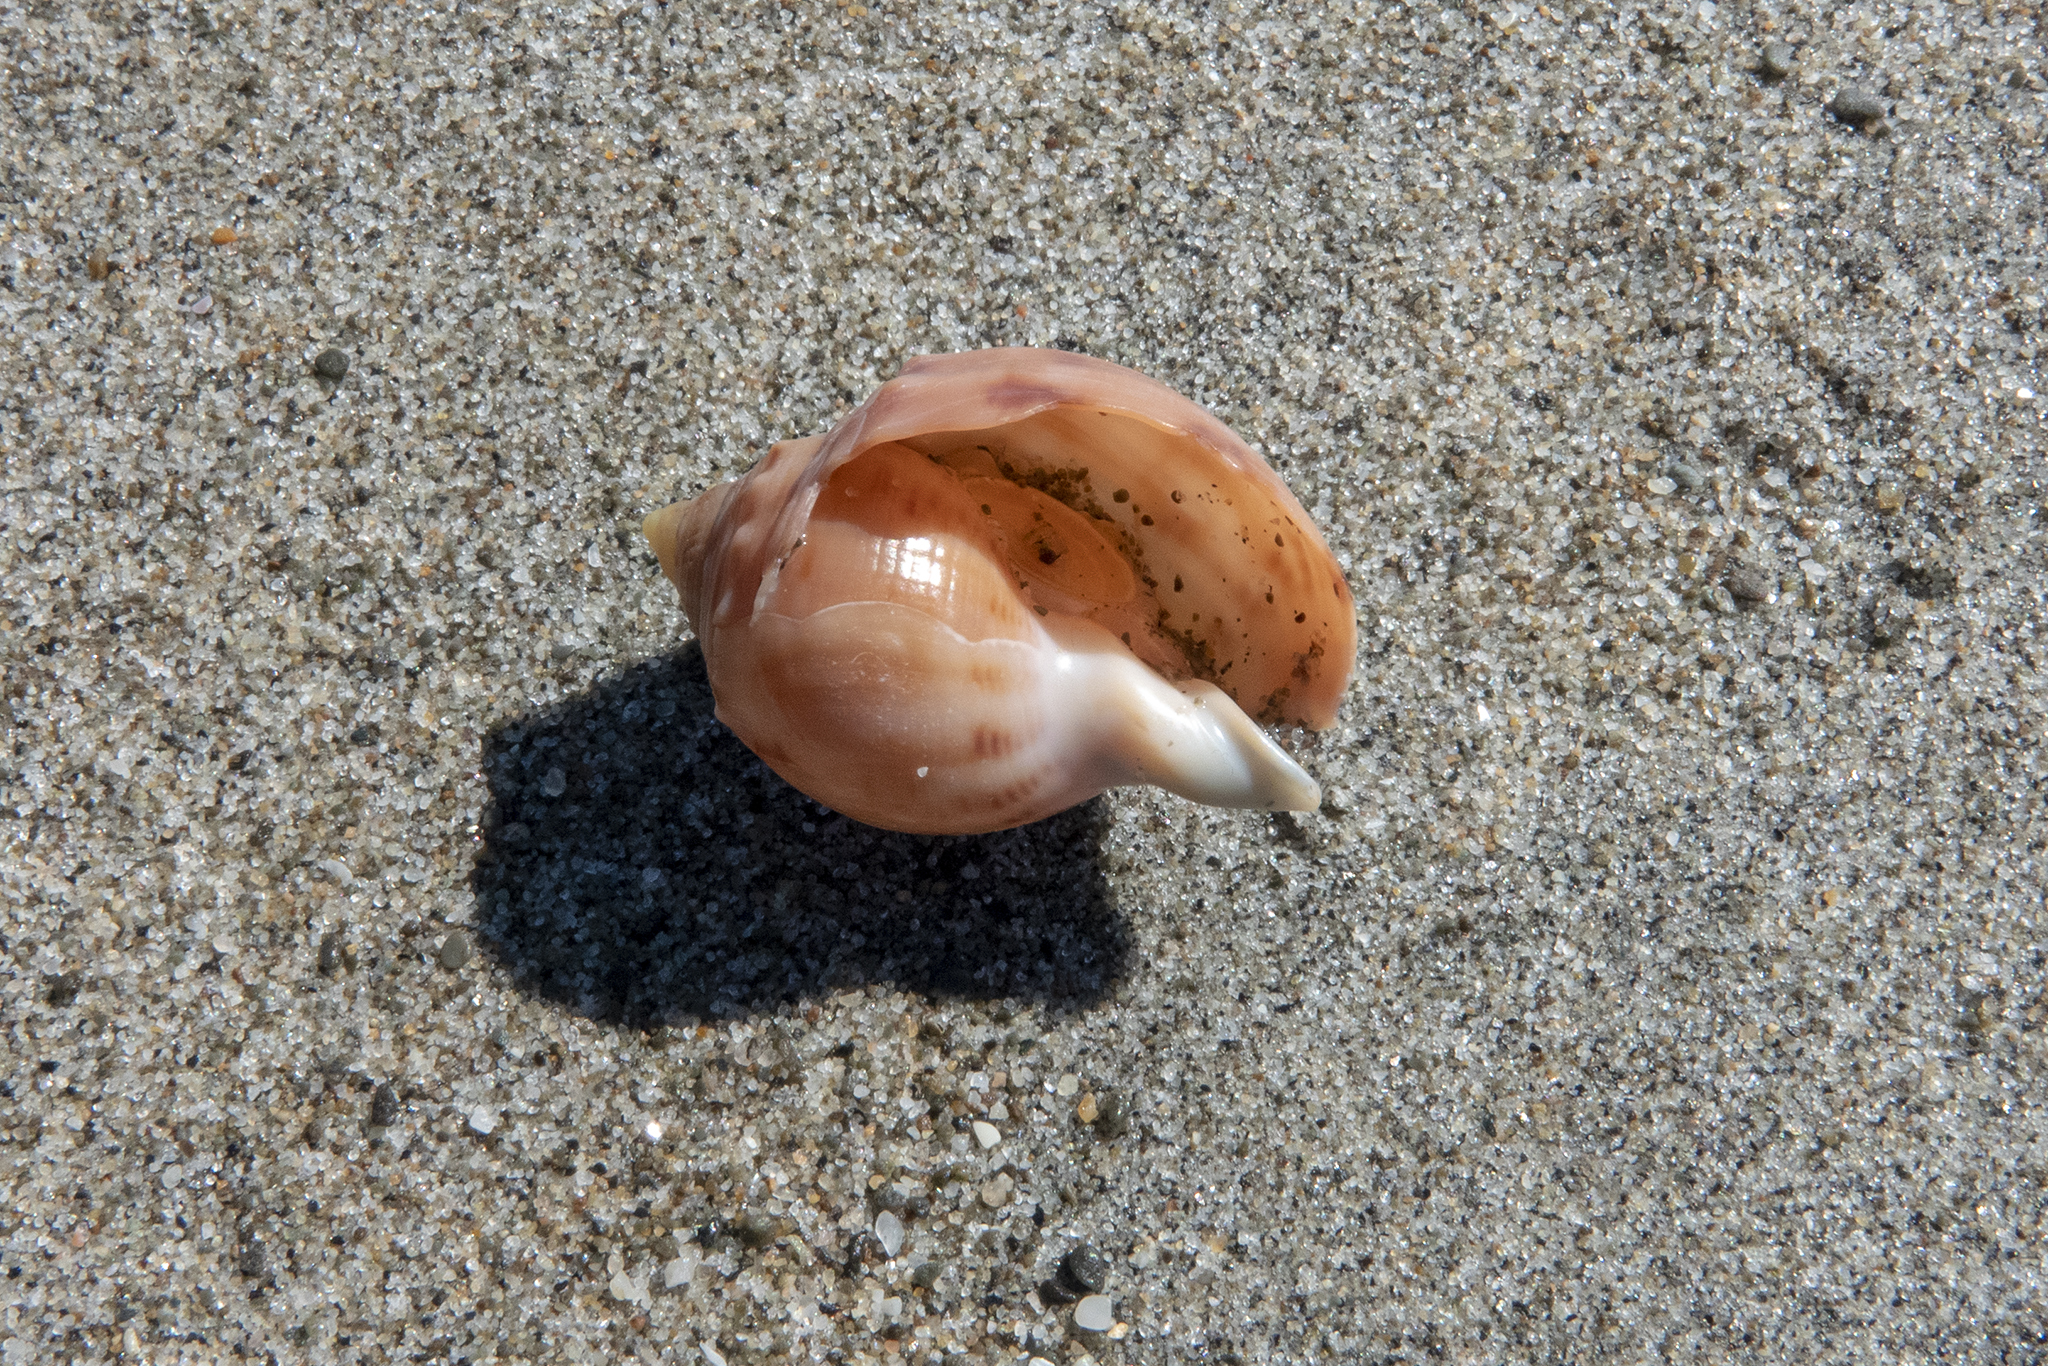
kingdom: Animalia
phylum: Mollusca
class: Gastropoda
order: Littorinimorpha
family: Cassidae
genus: Semicassis
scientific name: Semicassis pyrum
